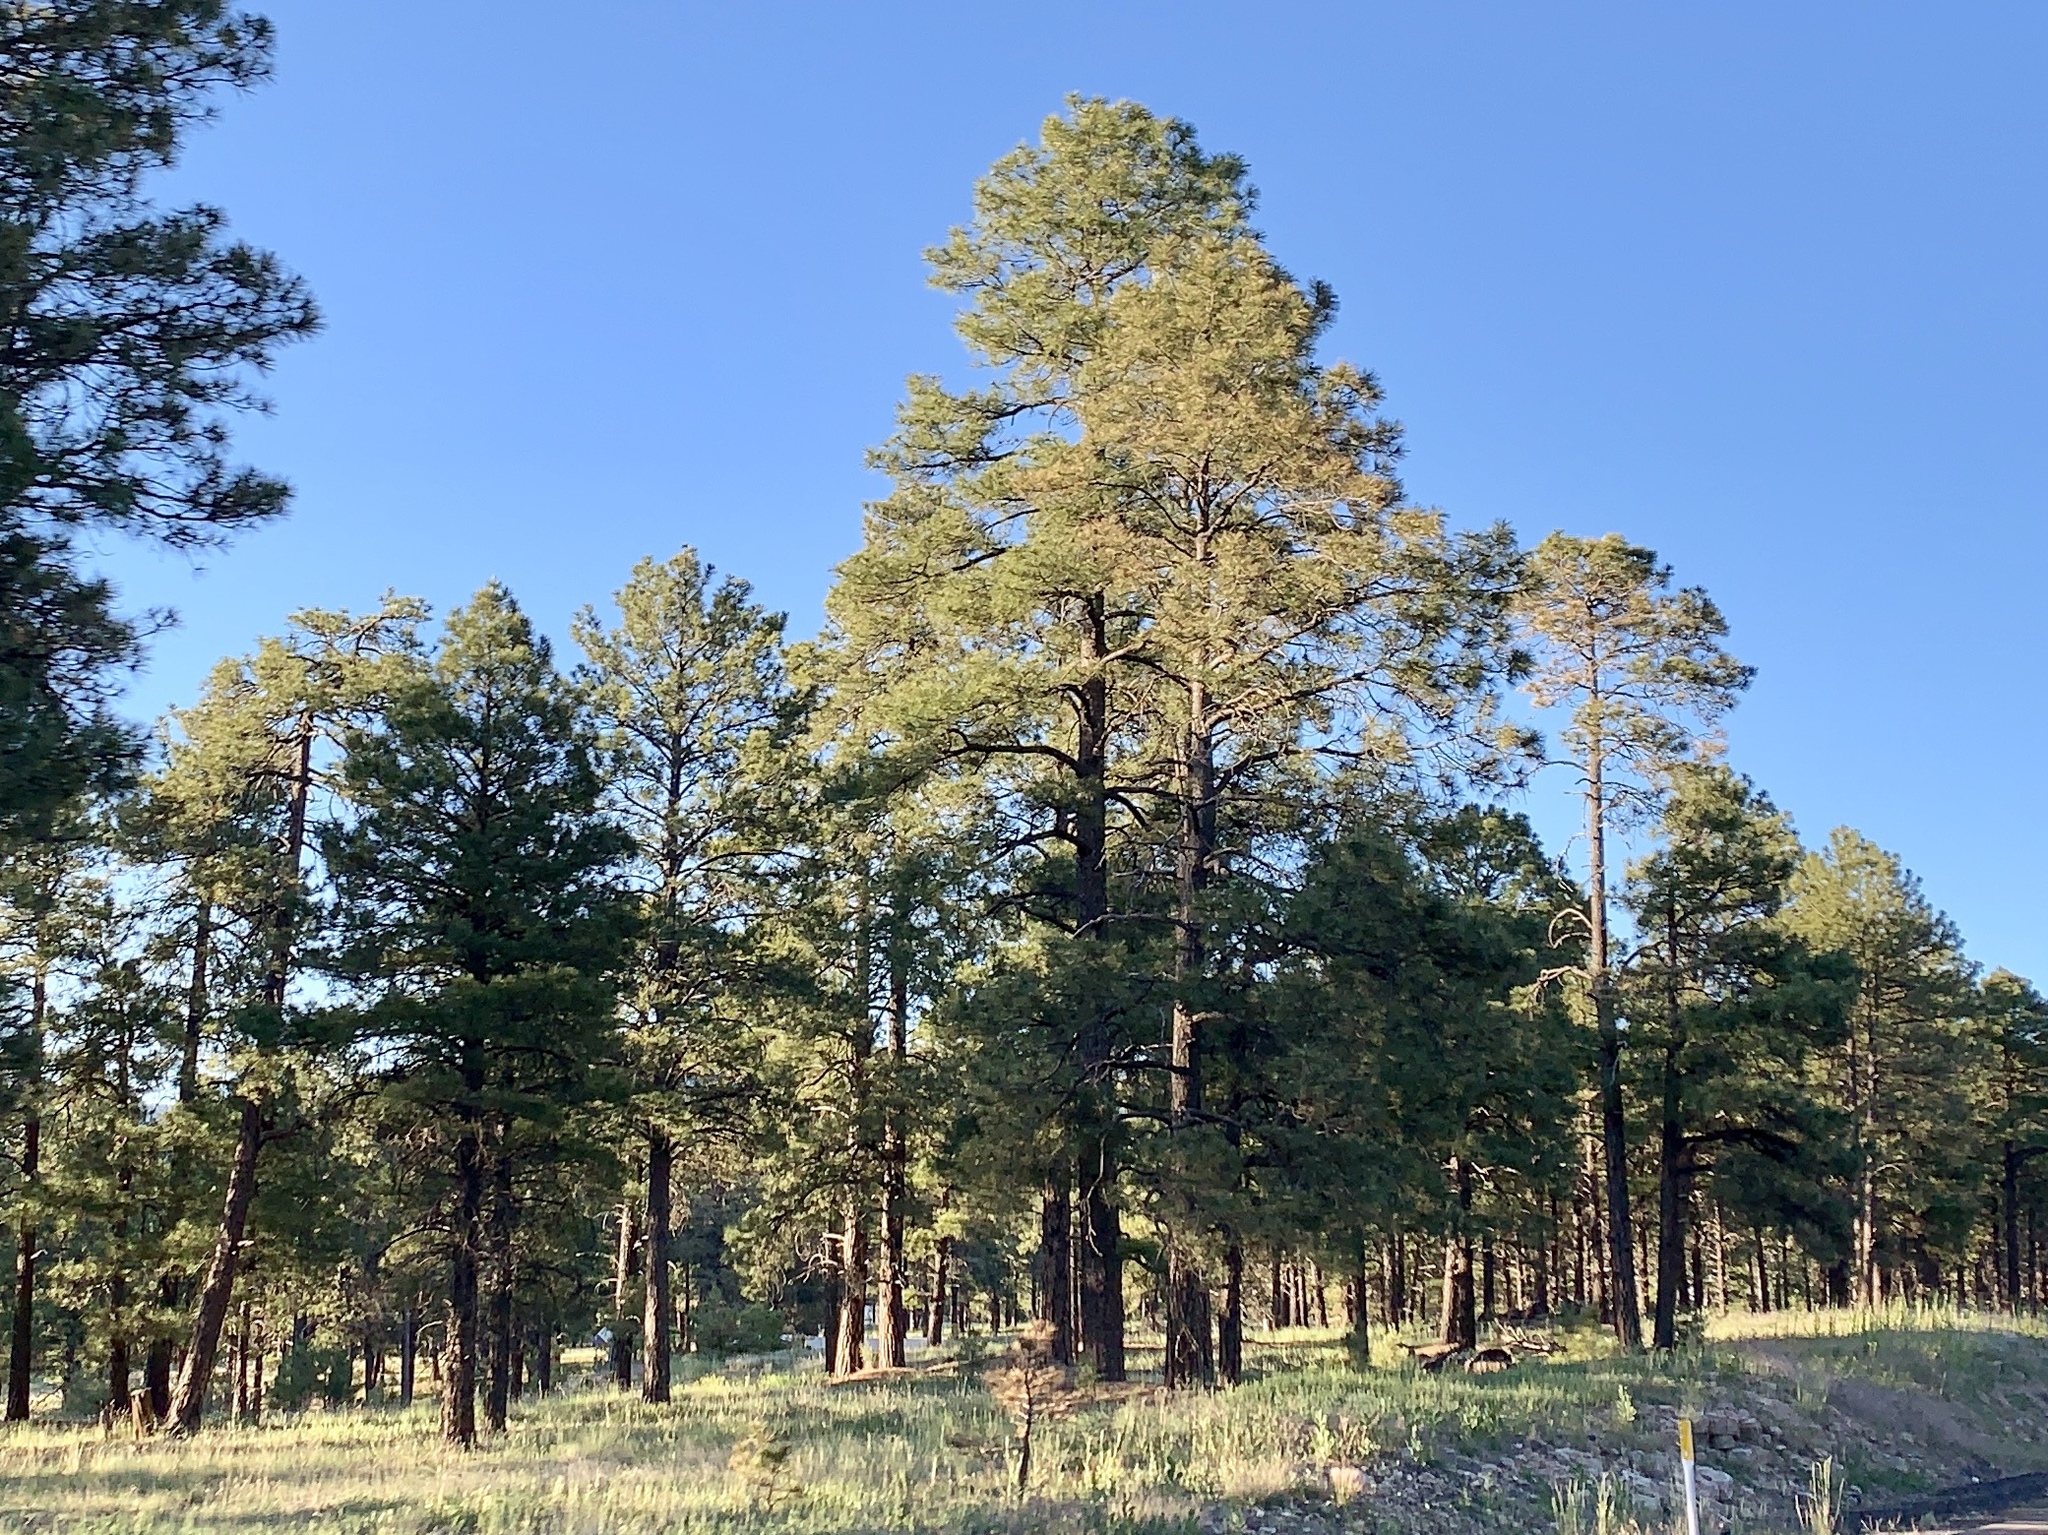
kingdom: Plantae
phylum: Tracheophyta
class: Pinopsida
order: Pinales
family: Pinaceae
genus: Pinus
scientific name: Pinus ponderosa
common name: Western yellow-pine
